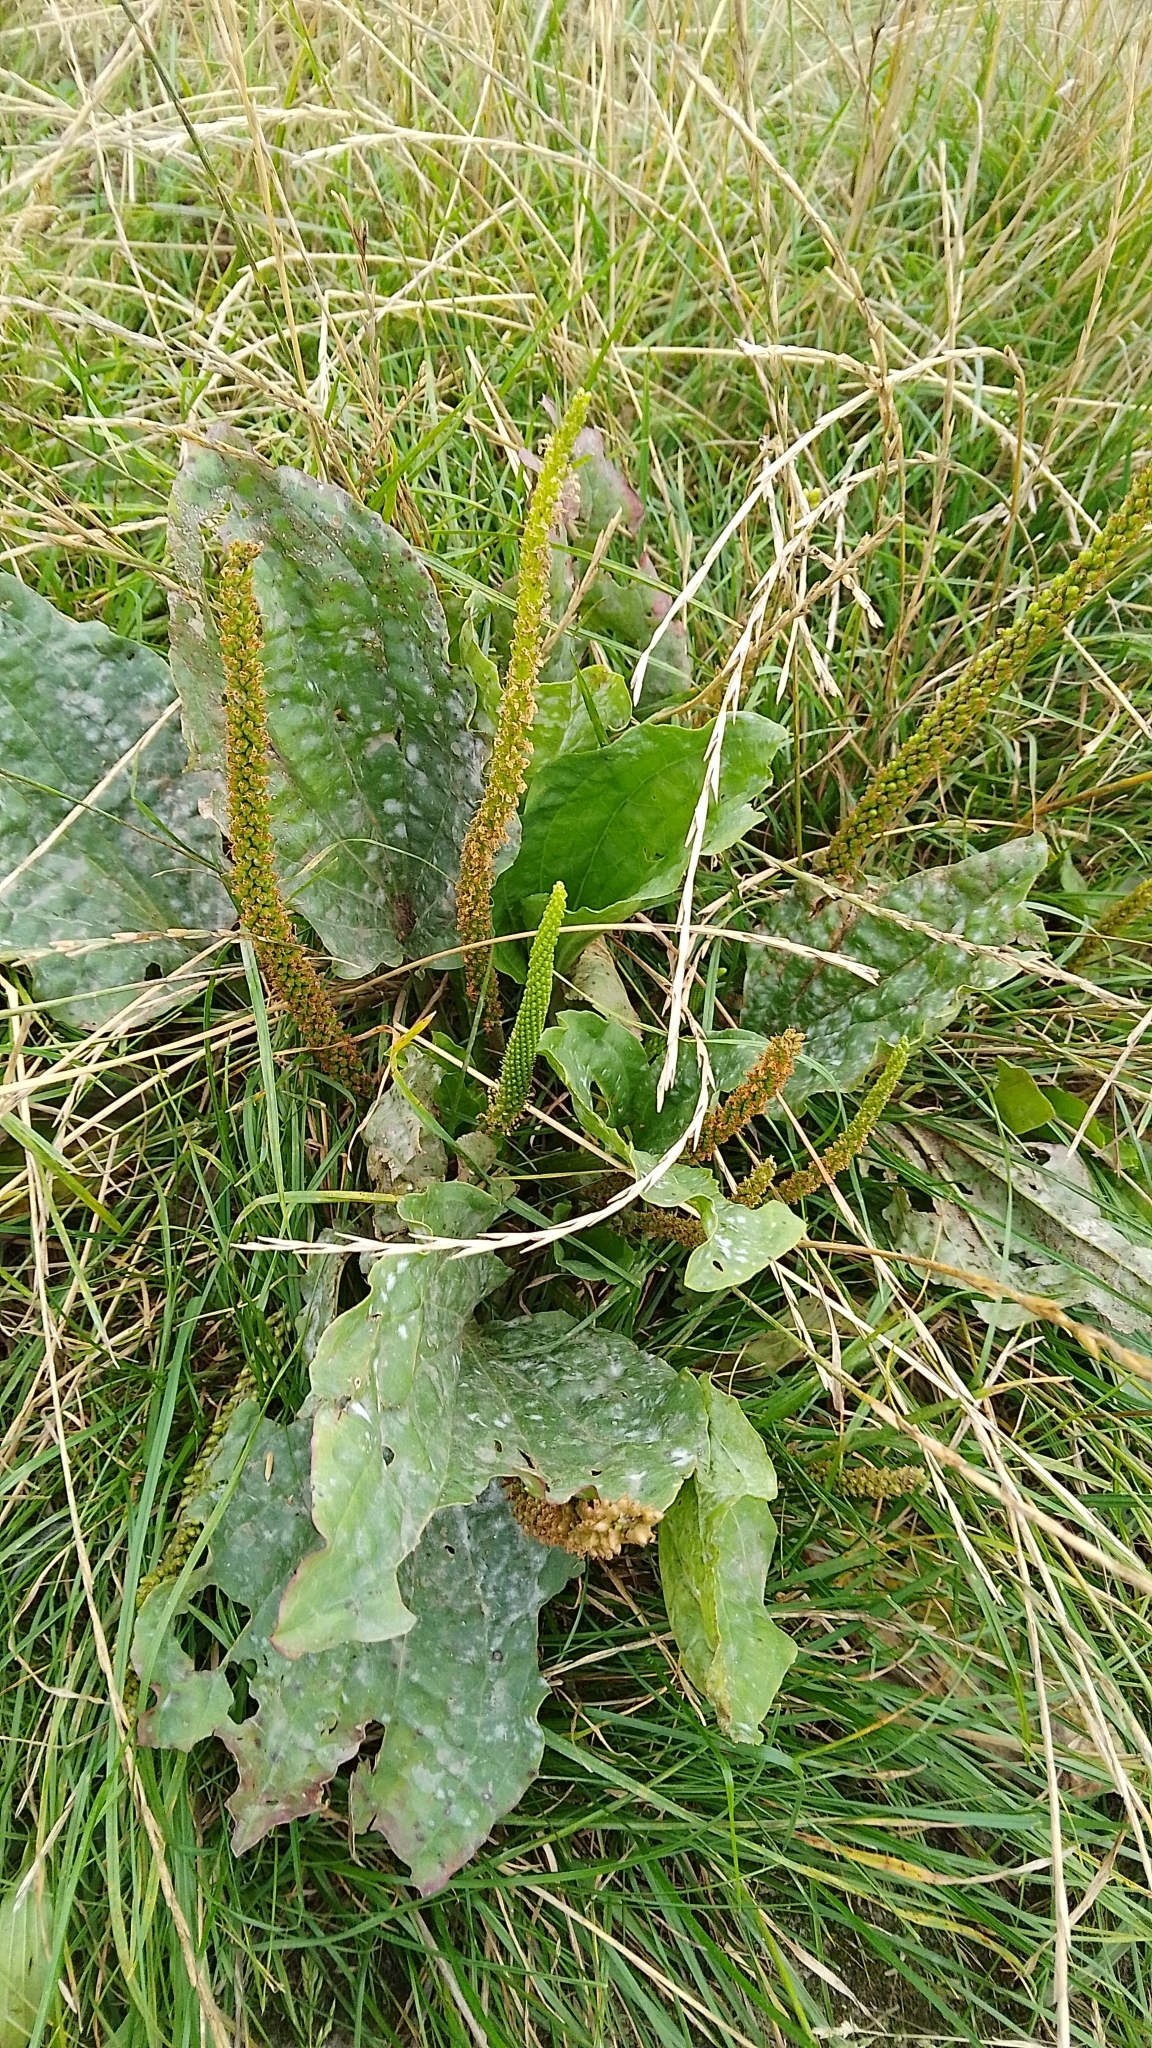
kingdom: Plantae
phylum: Tracheophyta
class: Magnoliopsida
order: Lamiales
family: Plantaginaceae
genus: Plantago
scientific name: Plantago major
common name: Common plantain
